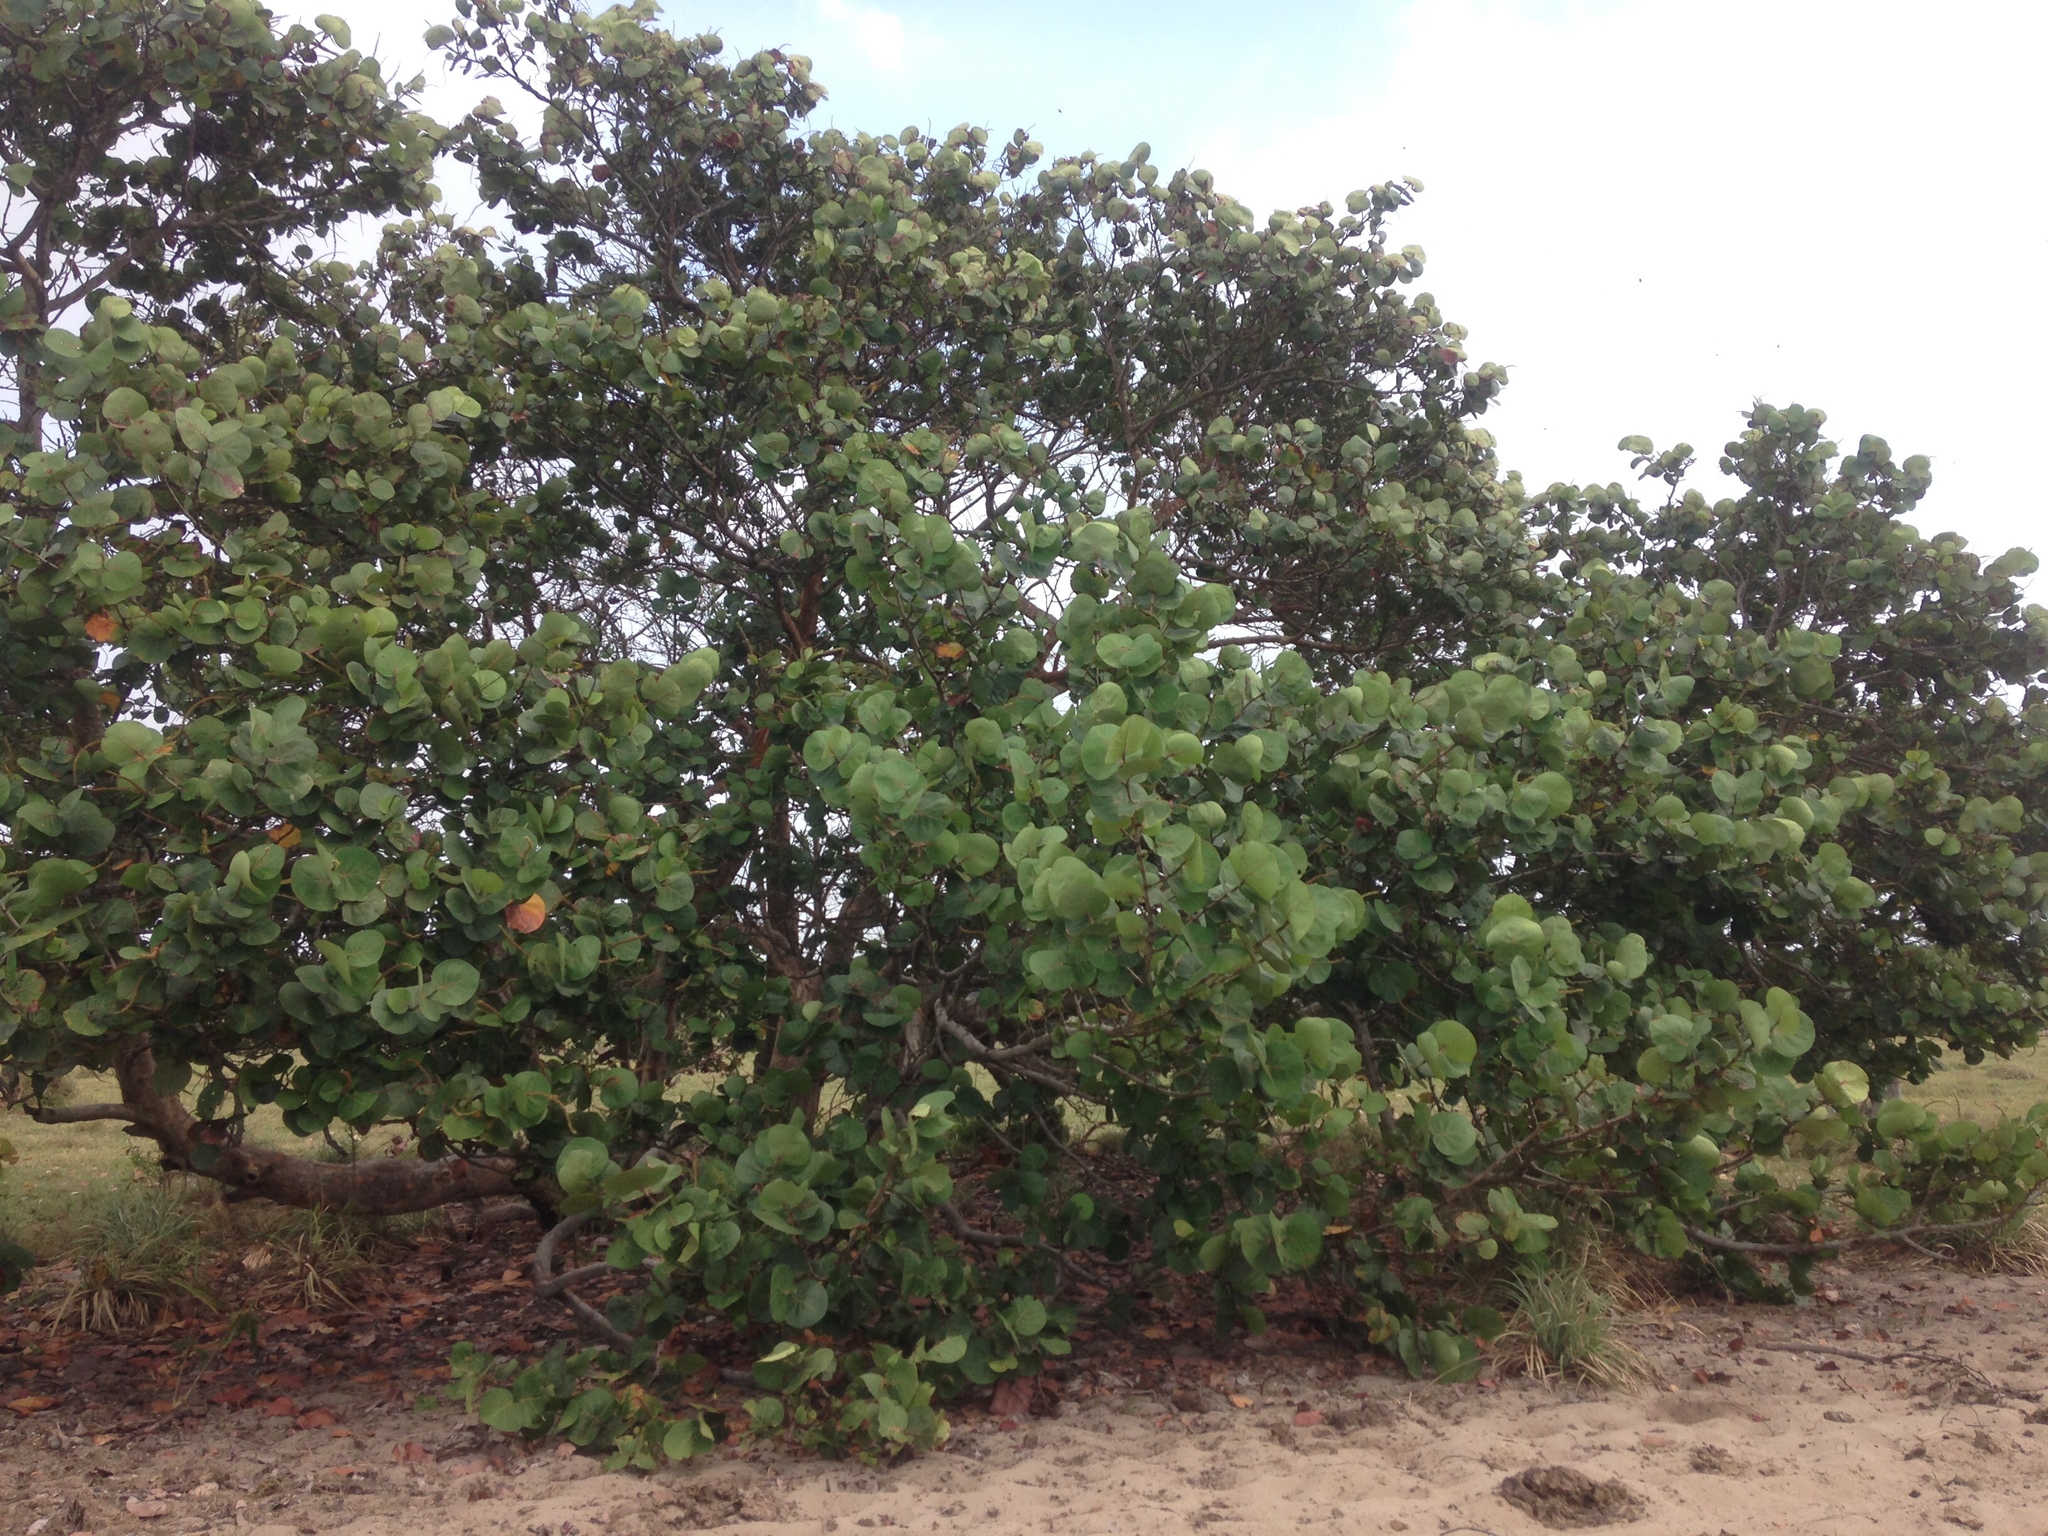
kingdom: Plantae
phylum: Tracheophyta
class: Magnoliopsida
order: Caryophyllales
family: Polygonaceae
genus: Coccoloba
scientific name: Coccoloba uvifera
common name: Seagrape
